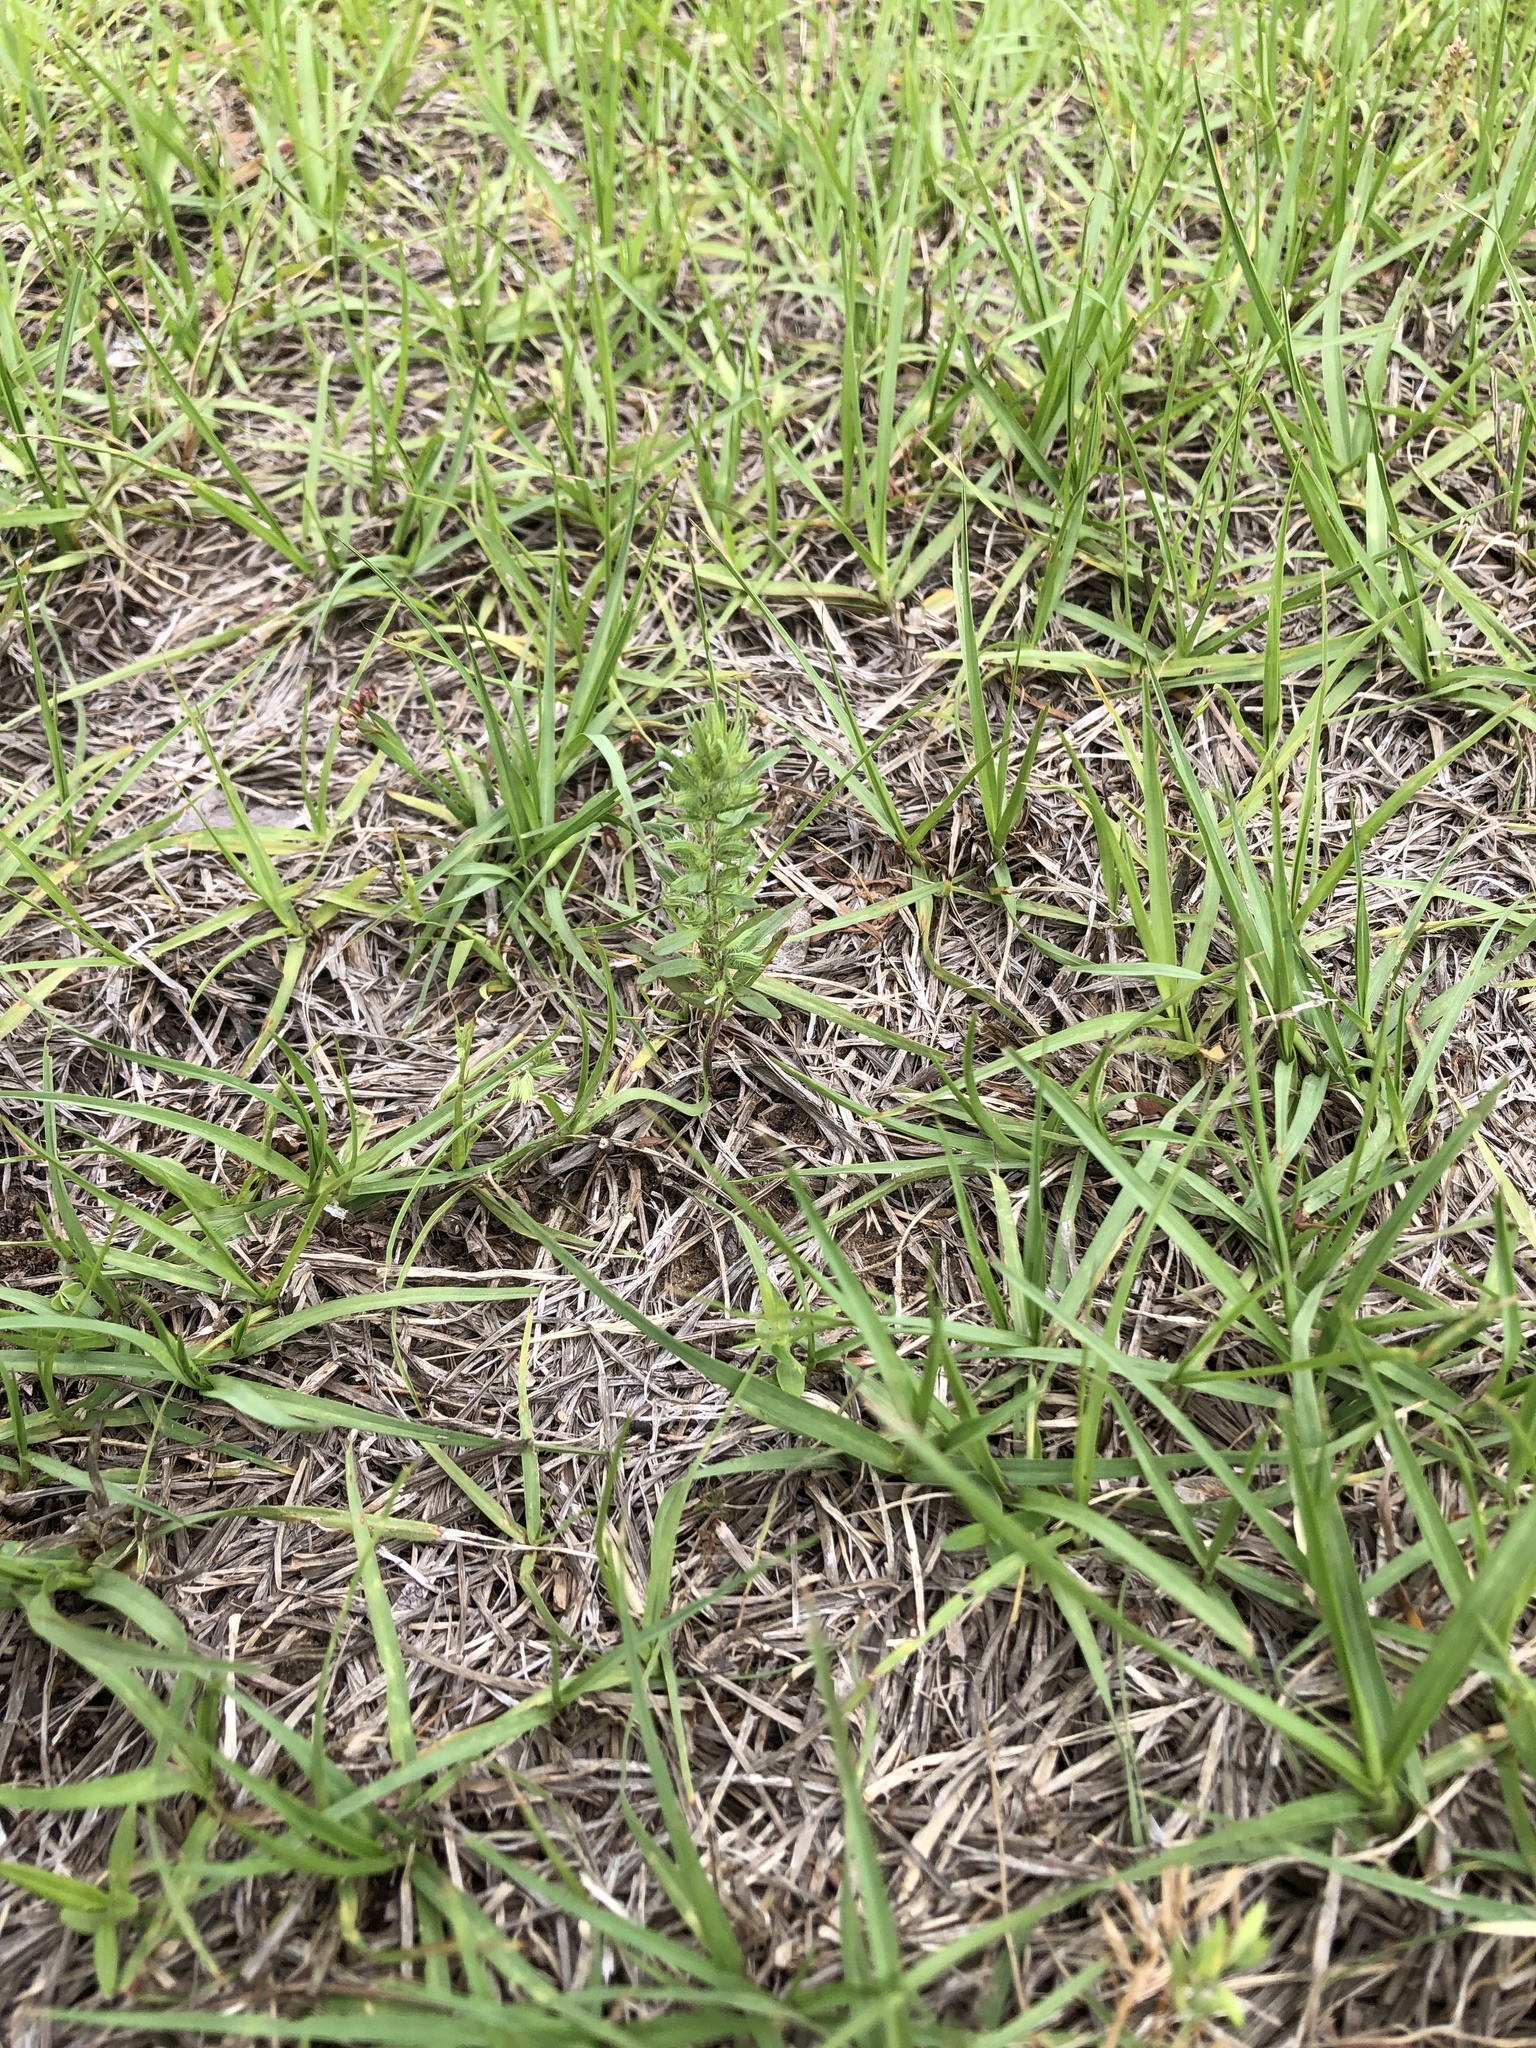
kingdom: Plantae
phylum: Tracheophyta
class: Magnoliopsida
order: Lamiales
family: Lamiaceae
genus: Hedeoma
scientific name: Hedeoma hispida
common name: Mock pennyroyal
